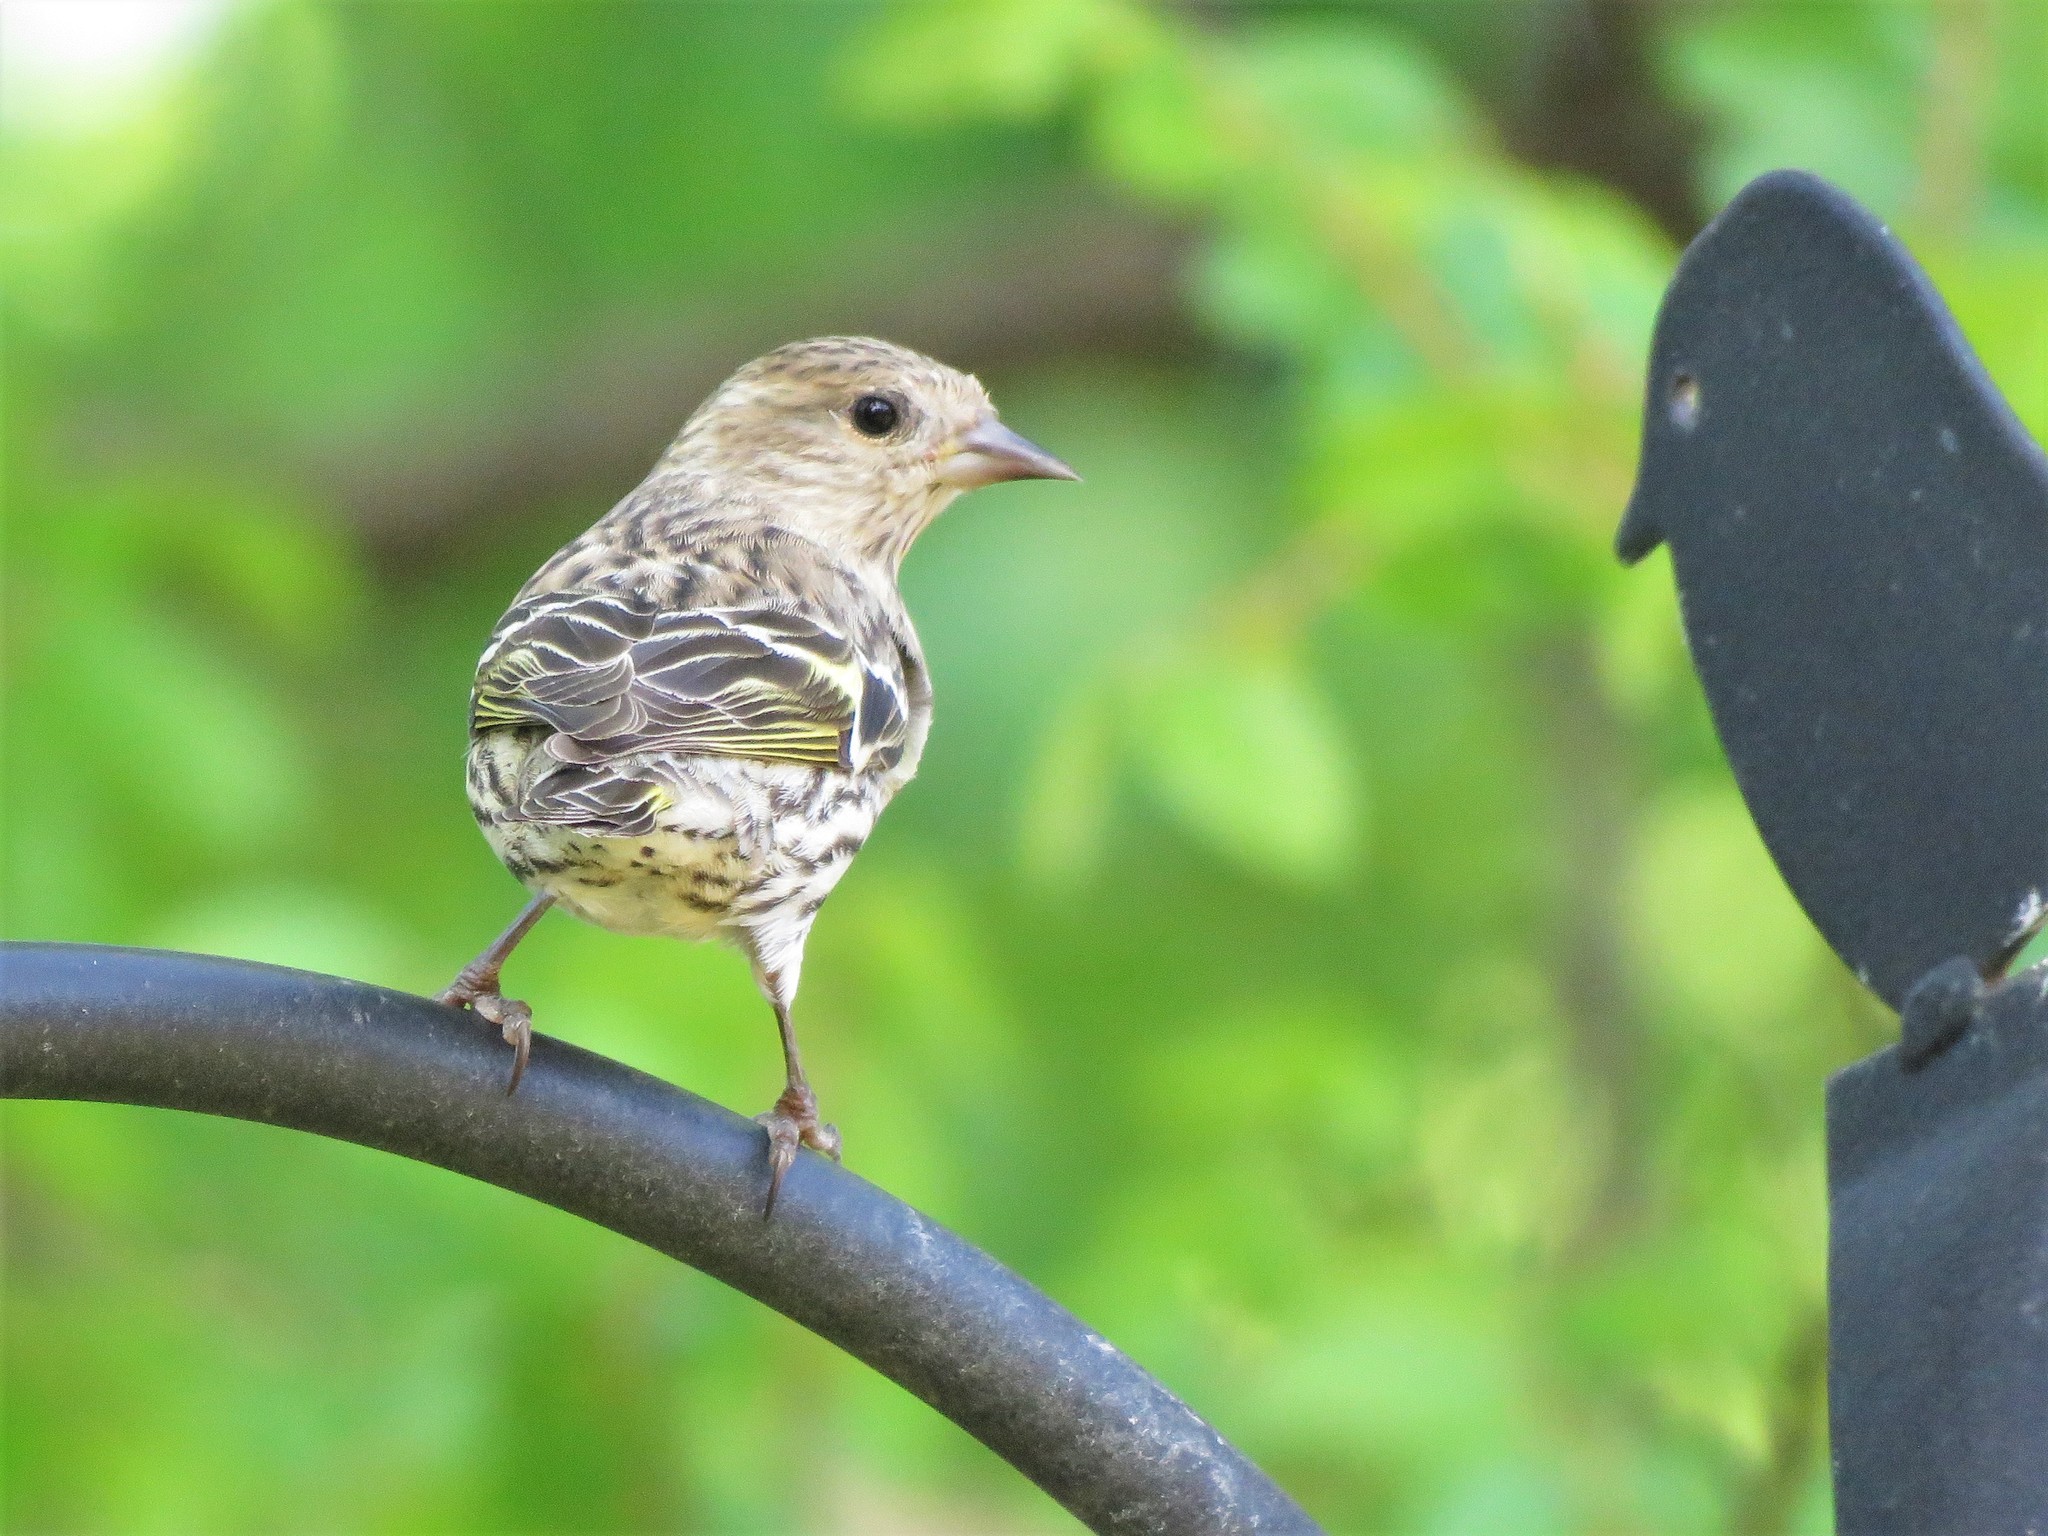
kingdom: Animalia
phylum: Chordata
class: Aves
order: Passeriformes
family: Fringillidae
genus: Spinus
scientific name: Spinus pinus
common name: Pine siskin
